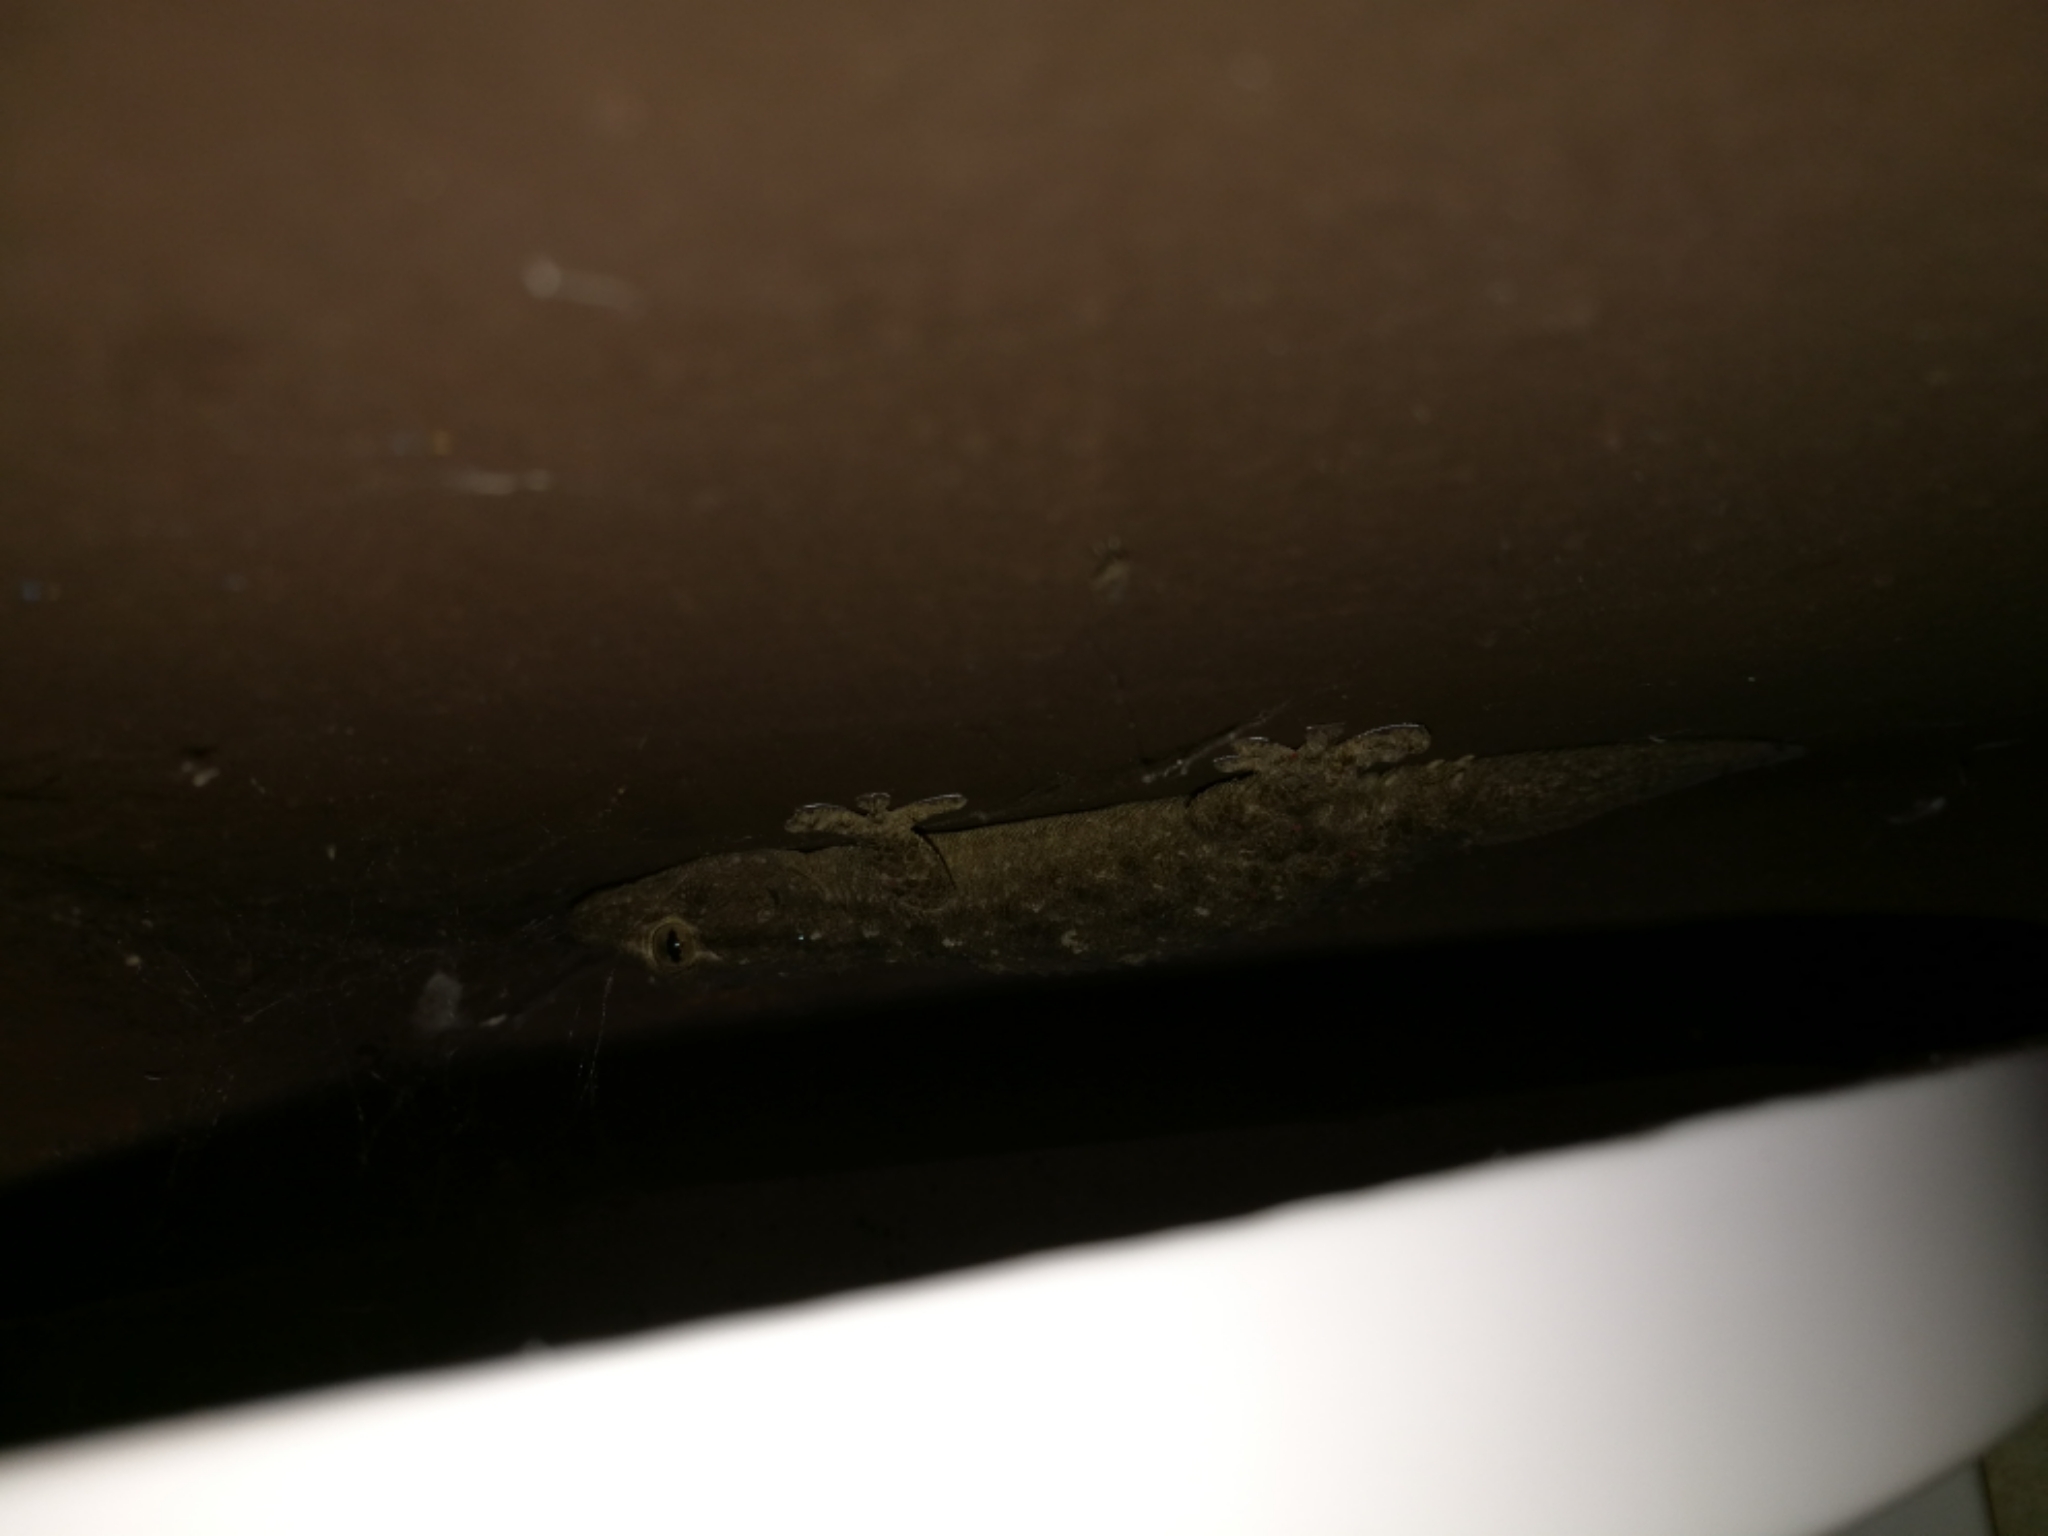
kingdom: Animalia
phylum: Chordata
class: Squamata
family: Phyllodactylidae
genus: Tarentola
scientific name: Tarentola mauritanica
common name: Moorish gecko
